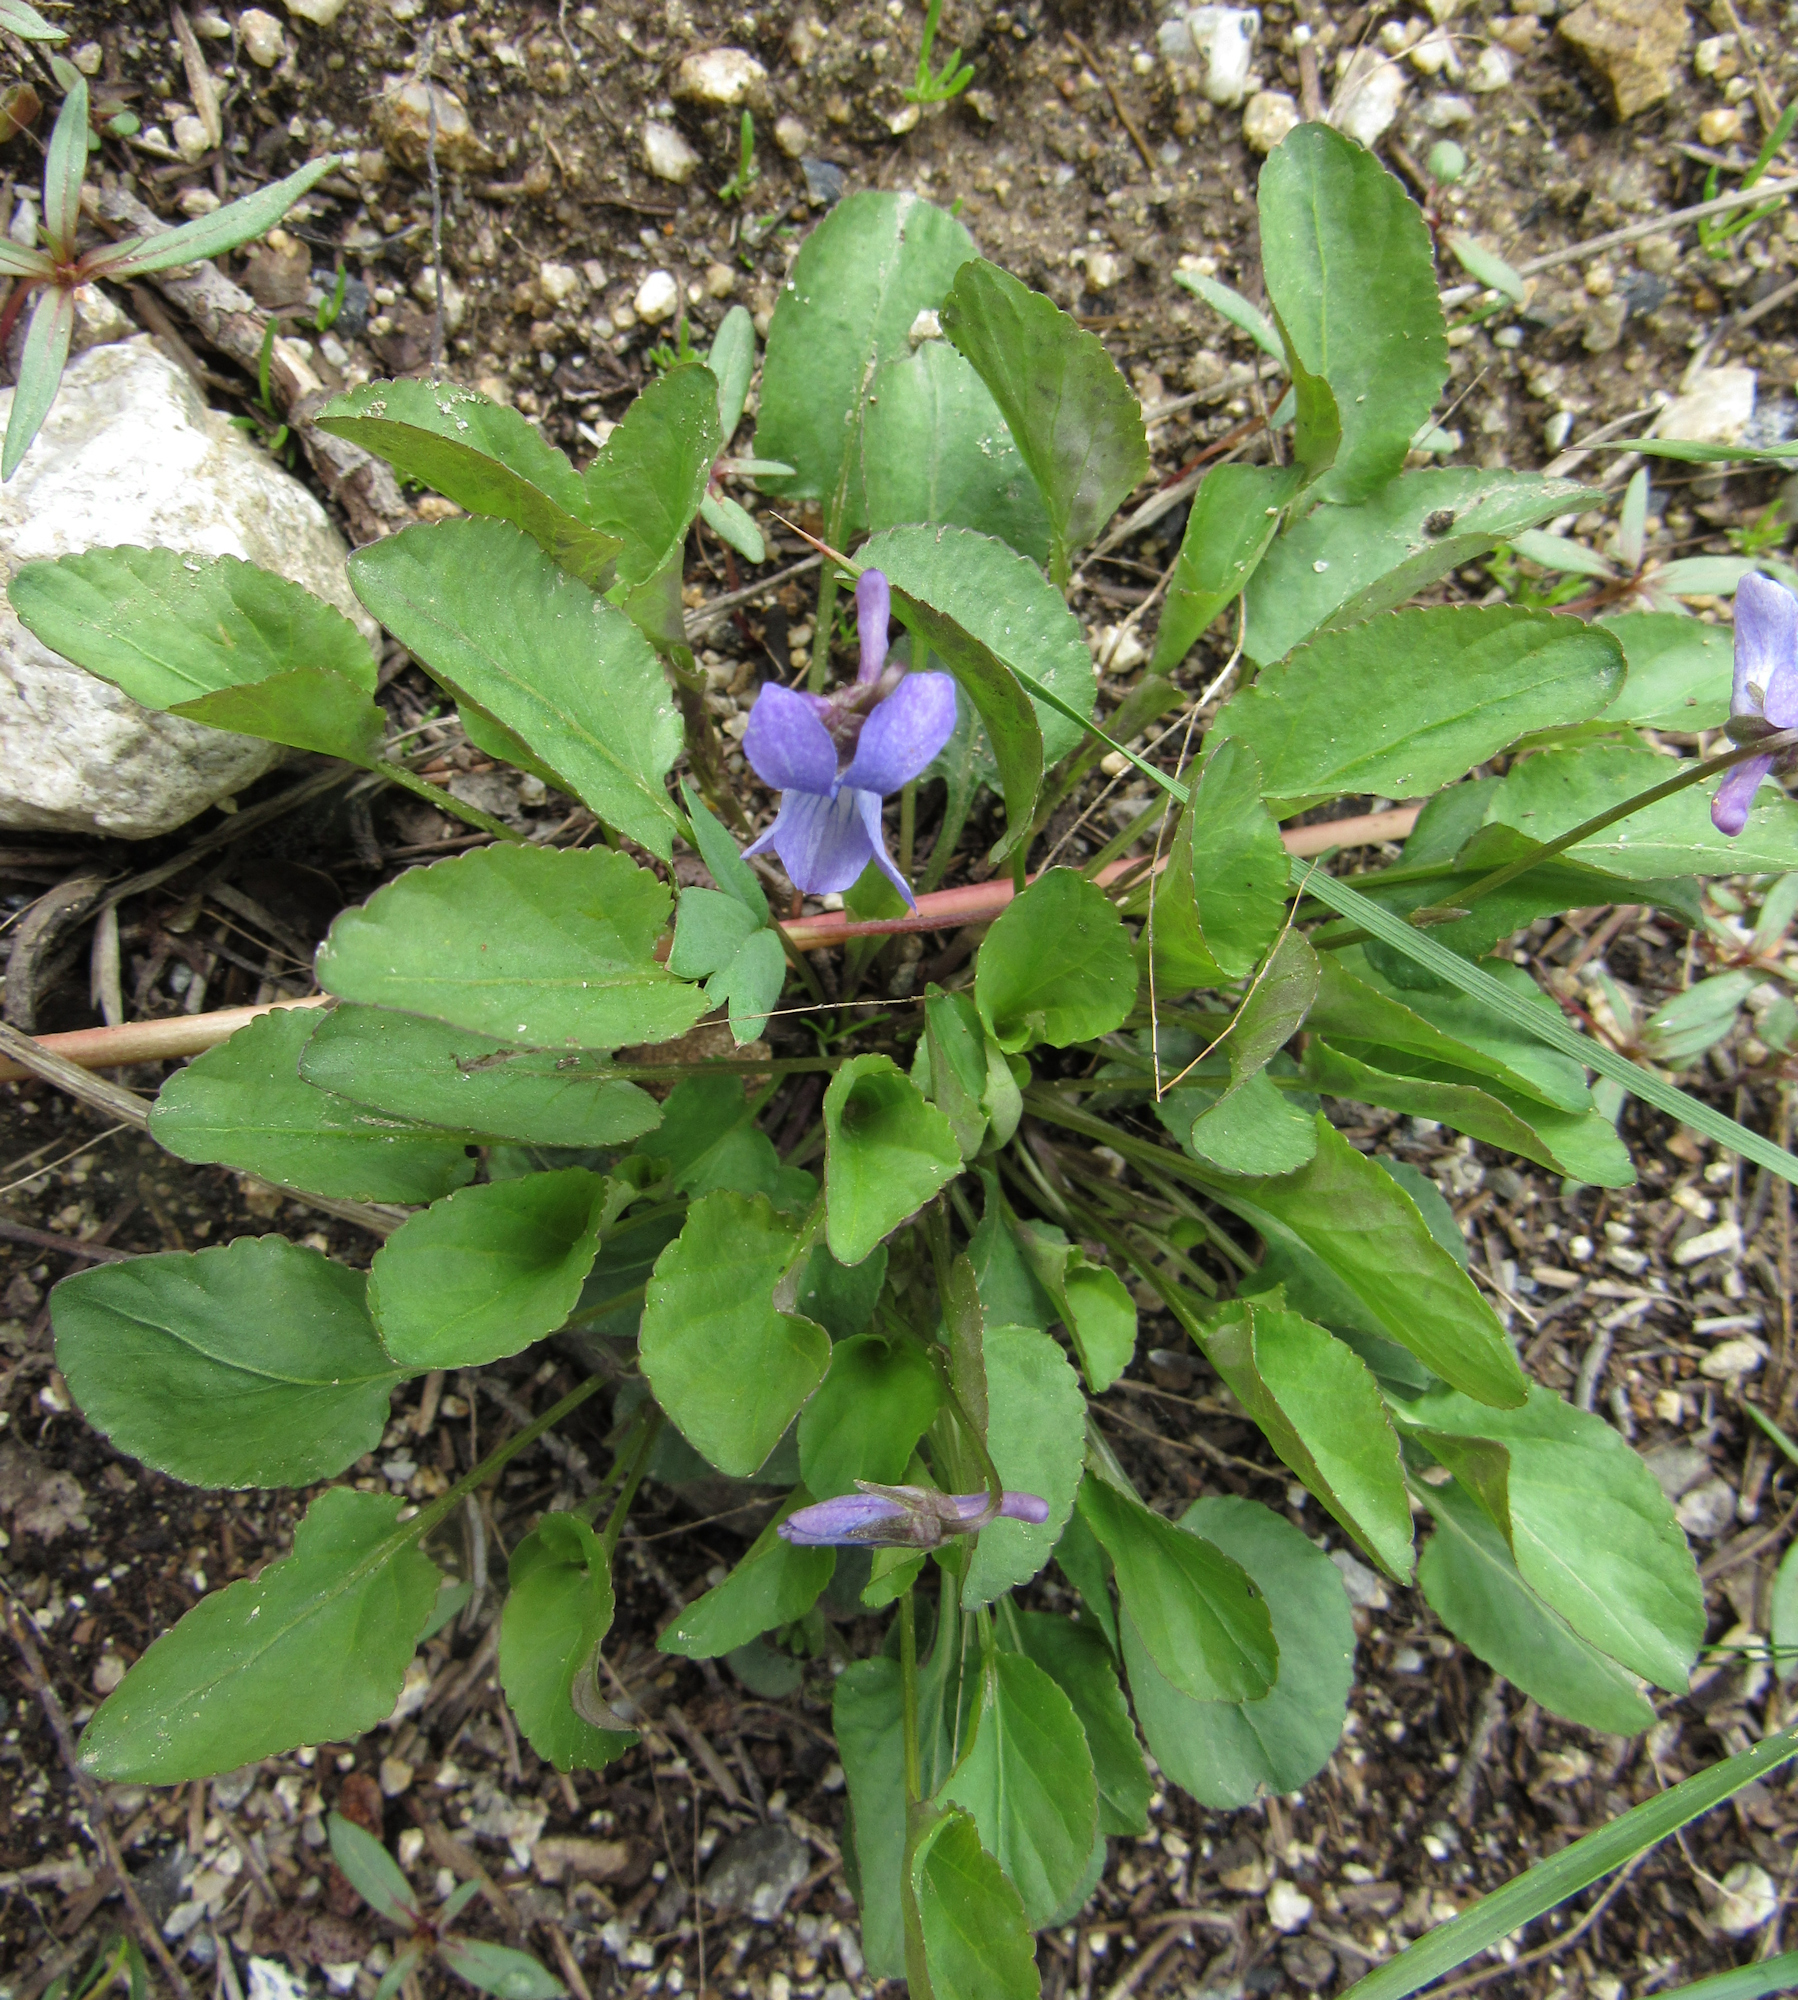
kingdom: Plantae
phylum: Tracheophyta
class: Magnoliopsida
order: Malpighiales
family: Violaceae
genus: Viola
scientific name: Viola adunca
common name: Sand violet
